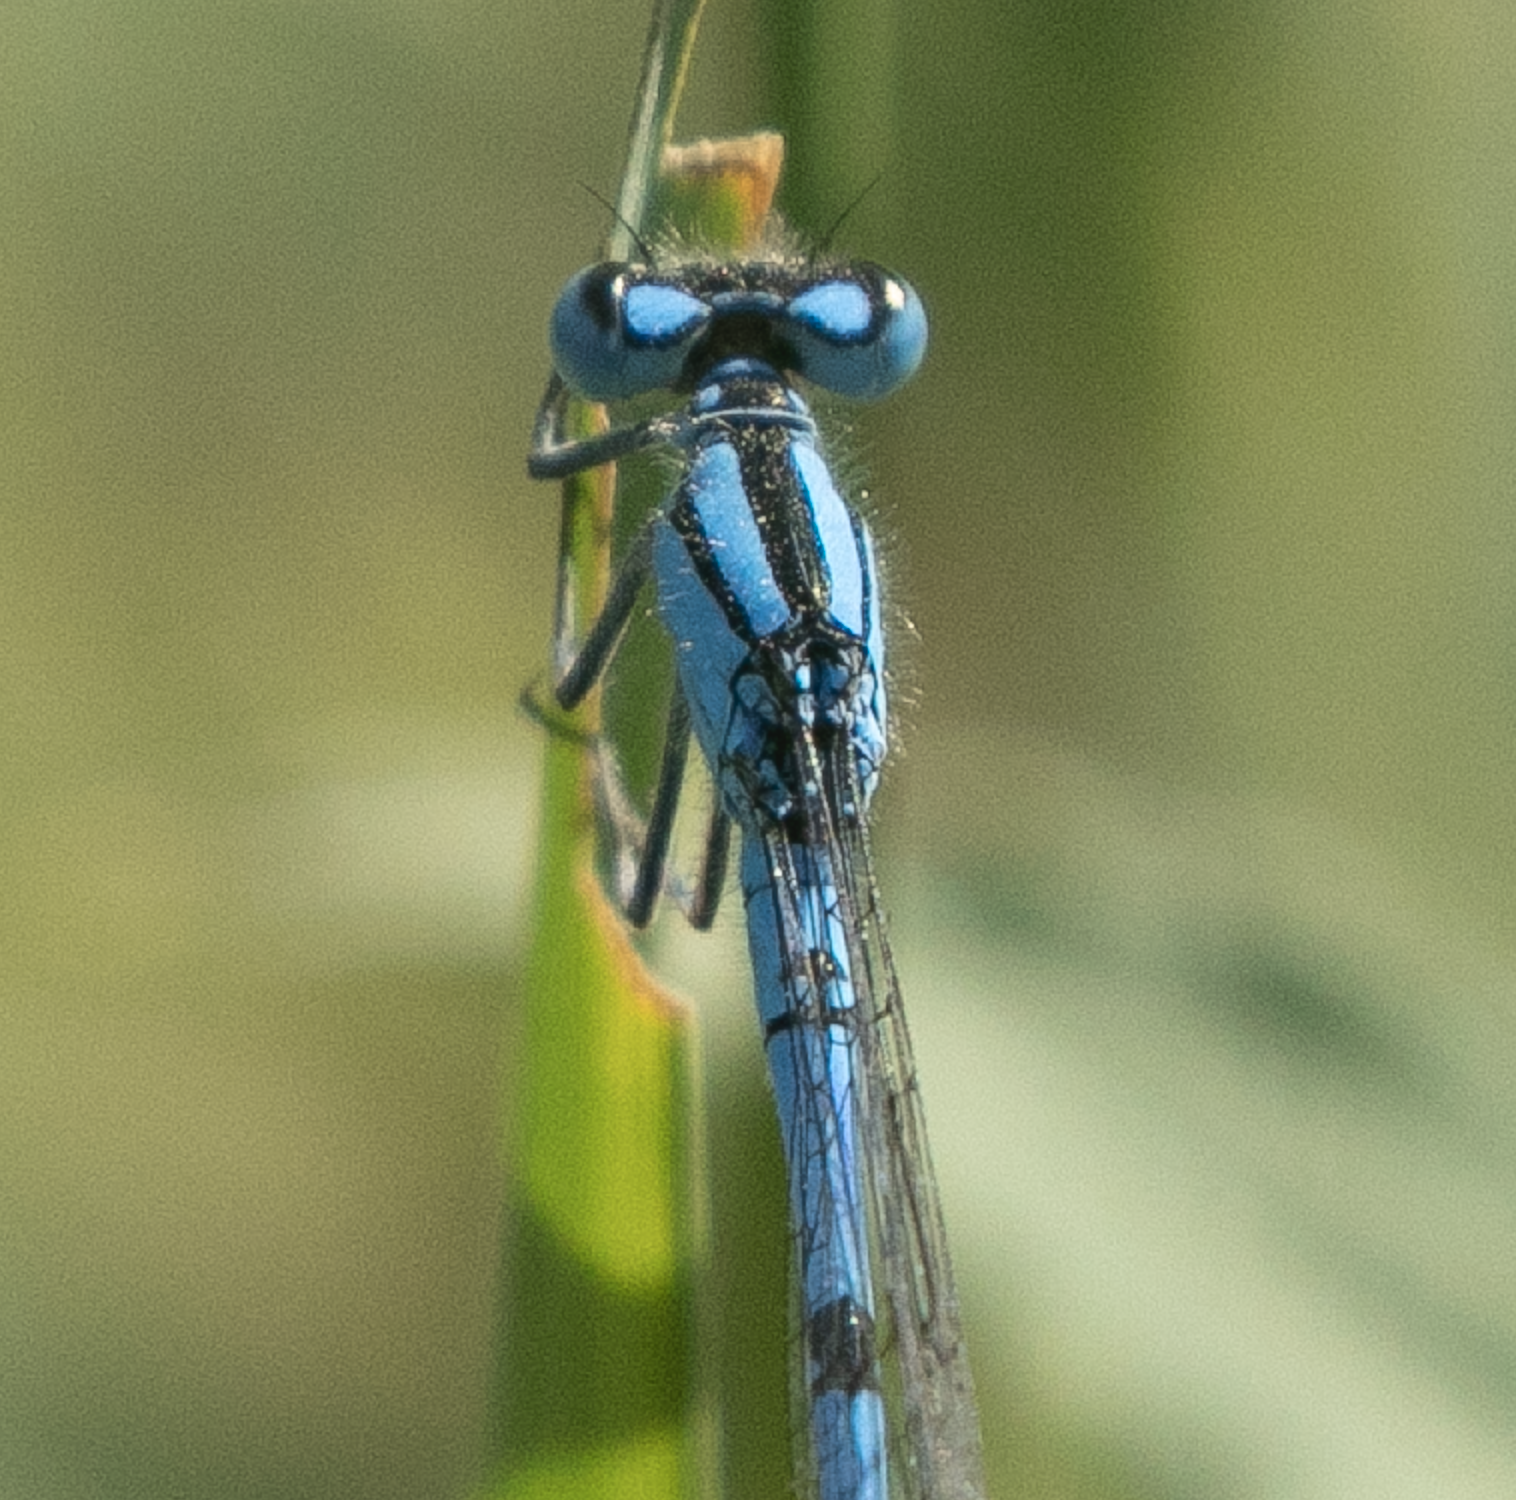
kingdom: Animalia
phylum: Arthropoda
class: Insecta
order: Odonata
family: Coenagrionidae
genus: Enallagma
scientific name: Enallagma cyathigerum
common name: Common blue damselfly
